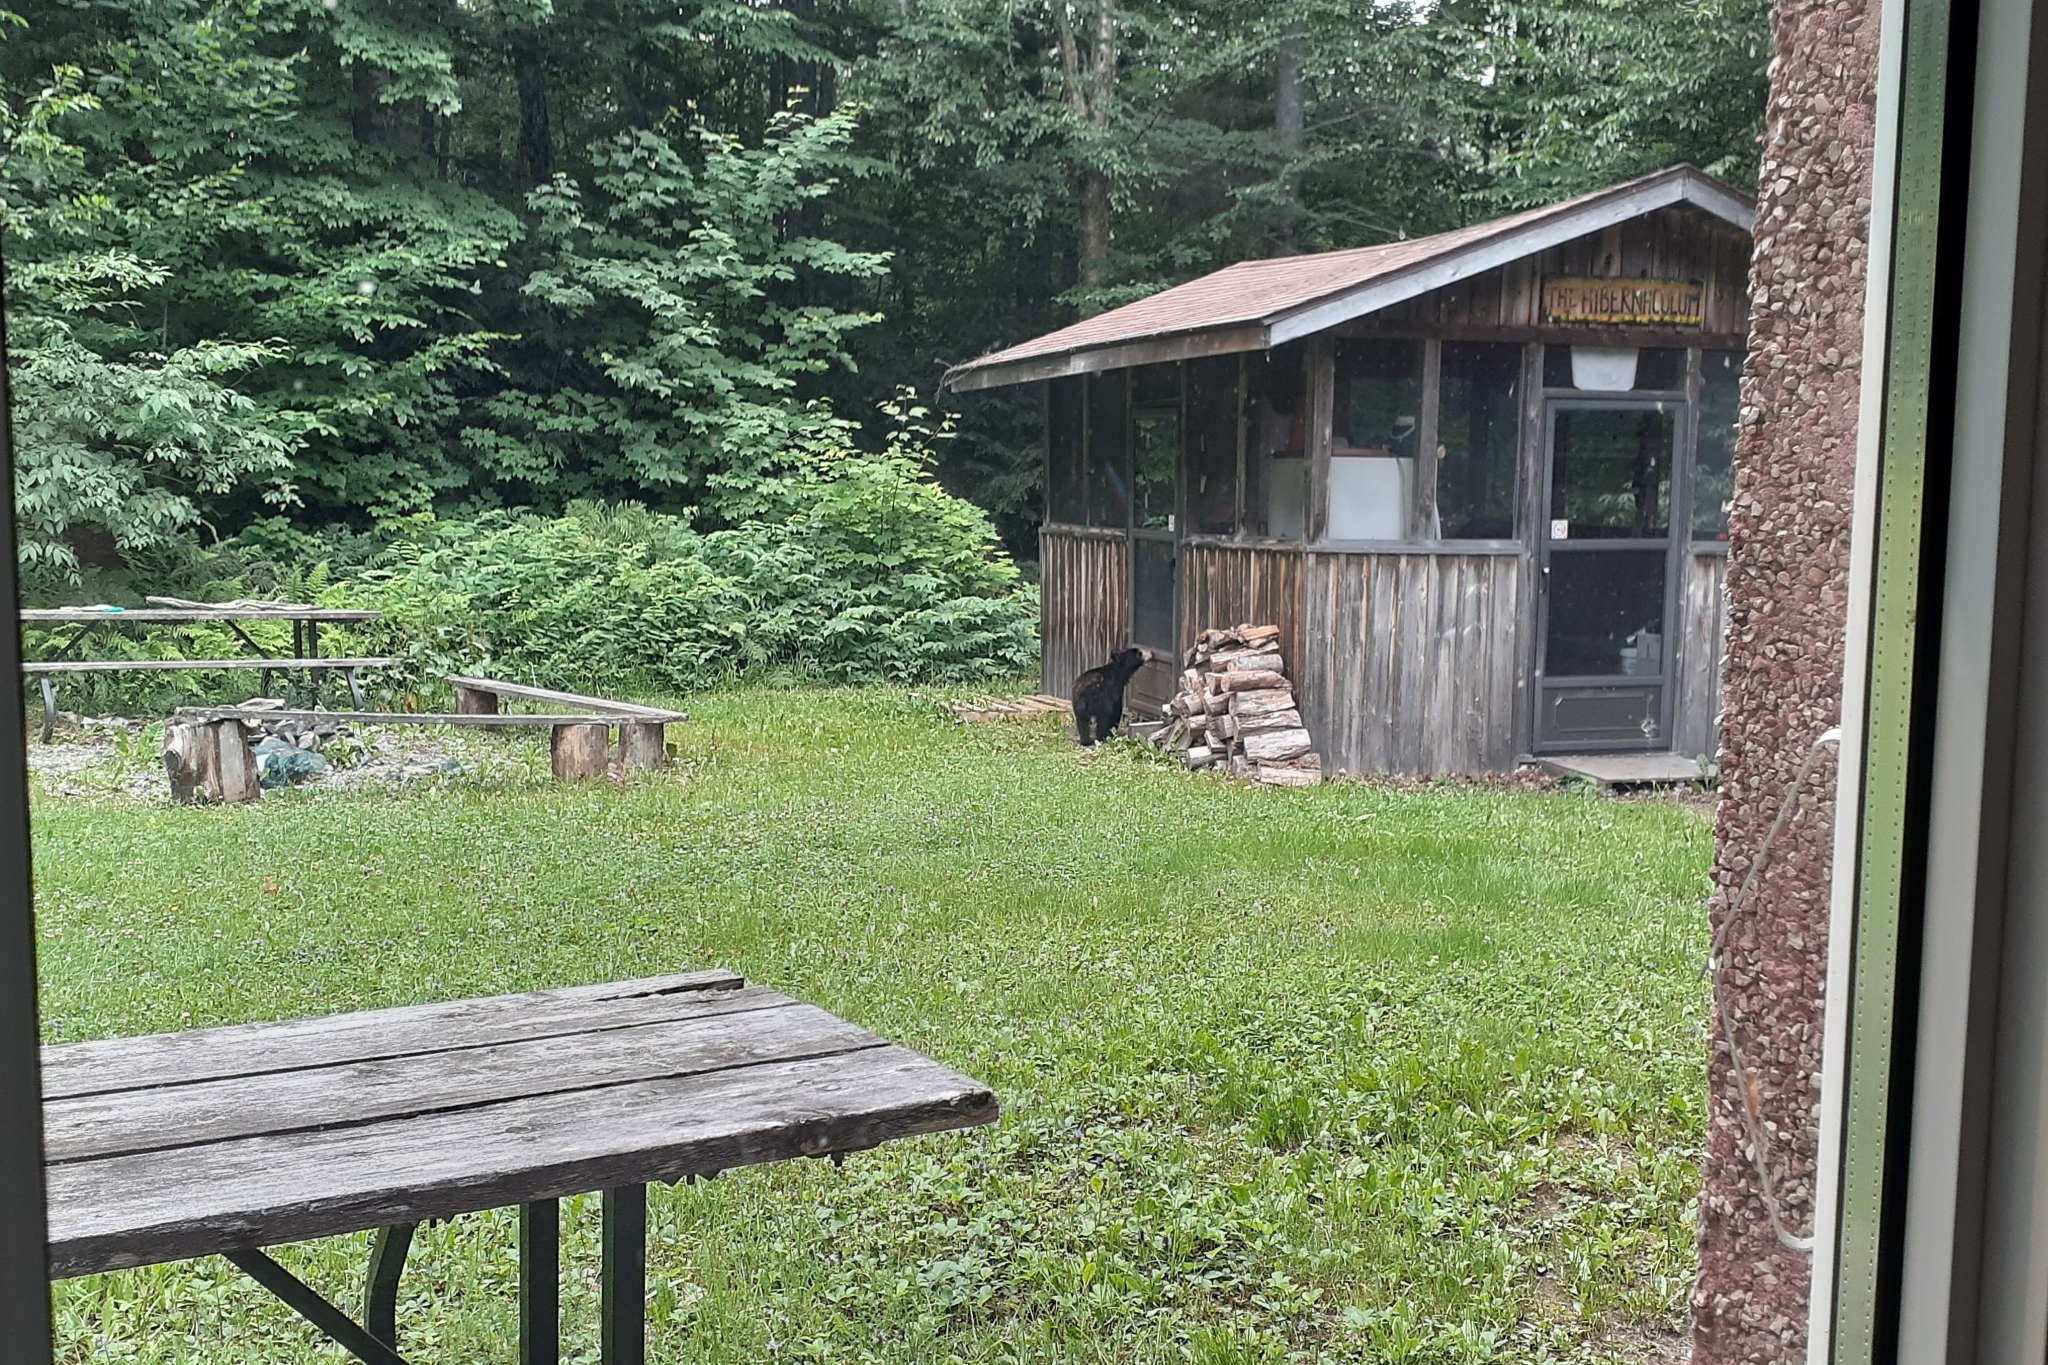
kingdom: Animalia
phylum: Chordata
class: Mammalia
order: Carnivora
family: Ursidae
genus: Ursus
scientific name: Ursus americanus
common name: American black bear
